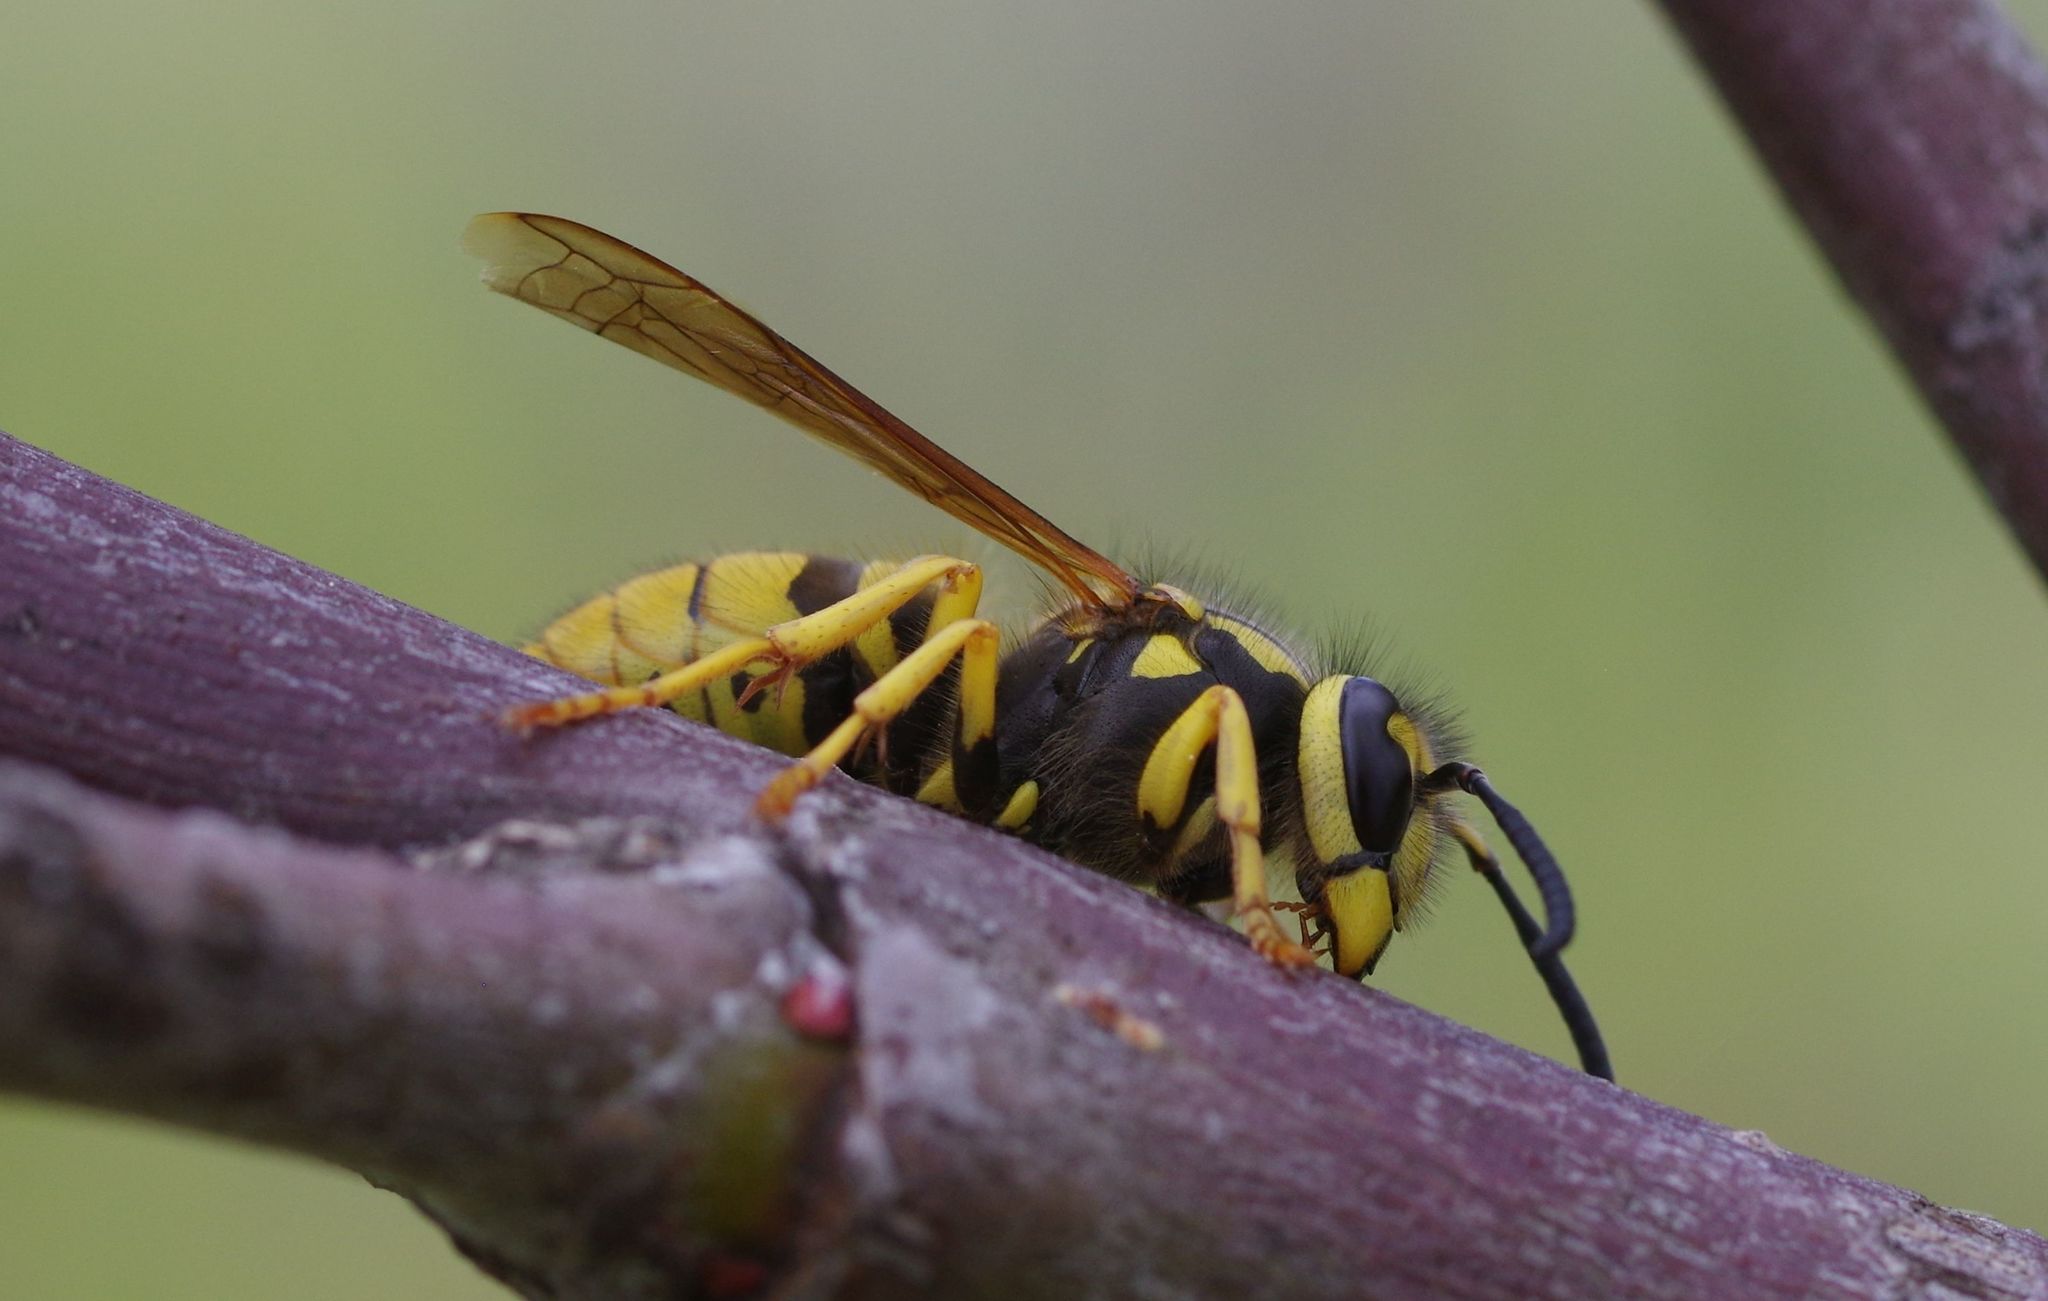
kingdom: Animalia
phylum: Arthropoda
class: Insecta
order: Hymenoptera
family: Vespidae
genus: Vespula
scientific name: Vespula pensylvanica
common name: Western yellowjacket
